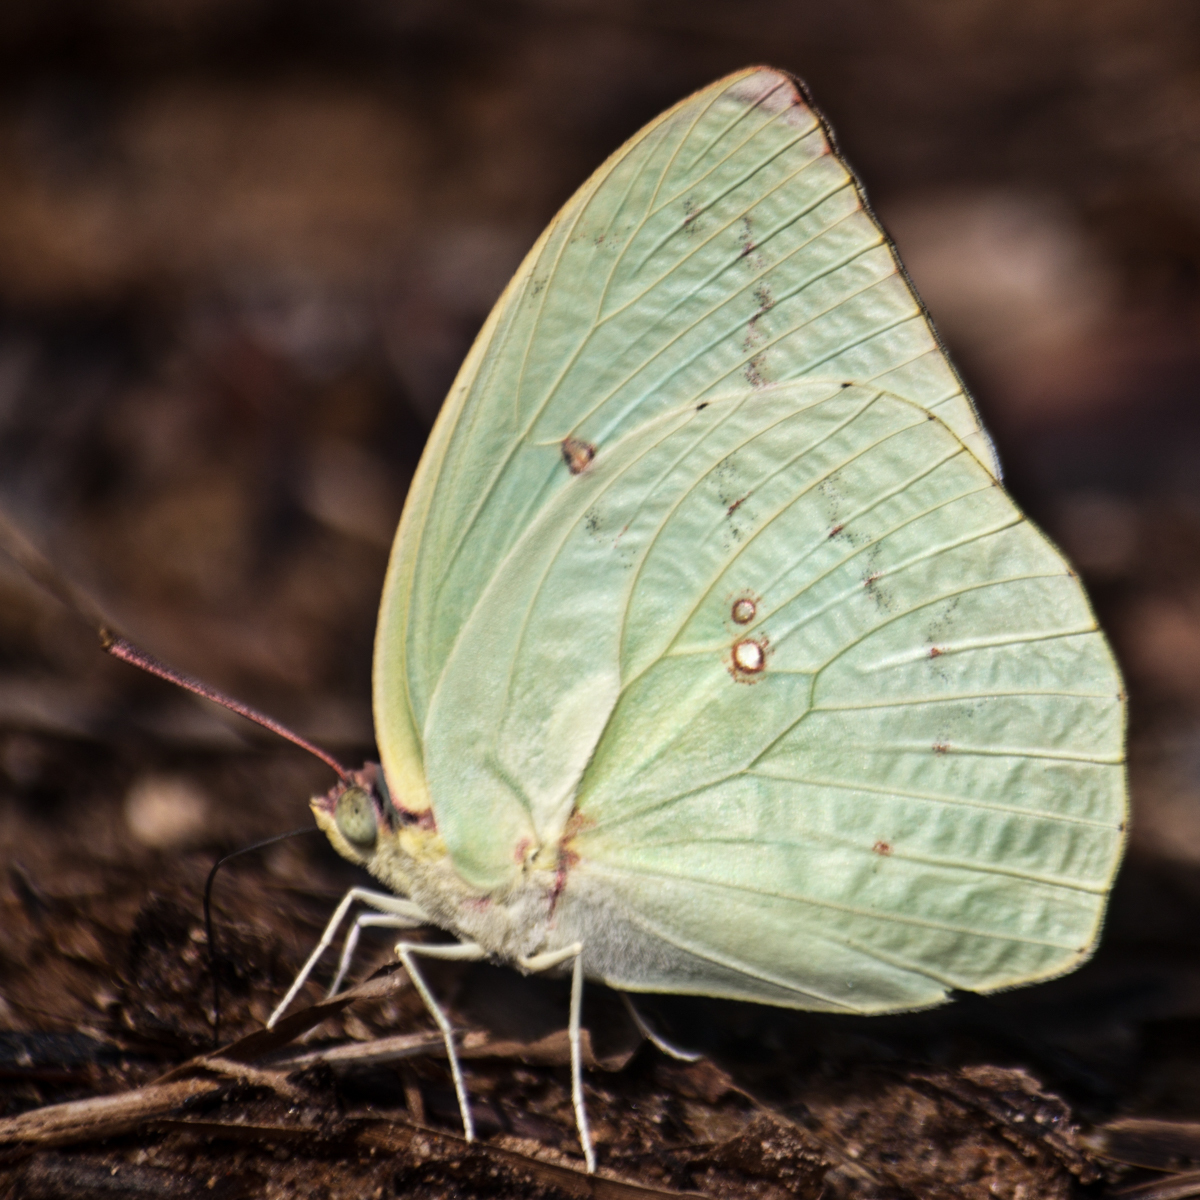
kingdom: Animalia
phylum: Arthropoda
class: Insecta
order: Lepidoptera
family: Pieridae
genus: Catopsilia
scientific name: Catopsilia pomona
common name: Common emigrant
